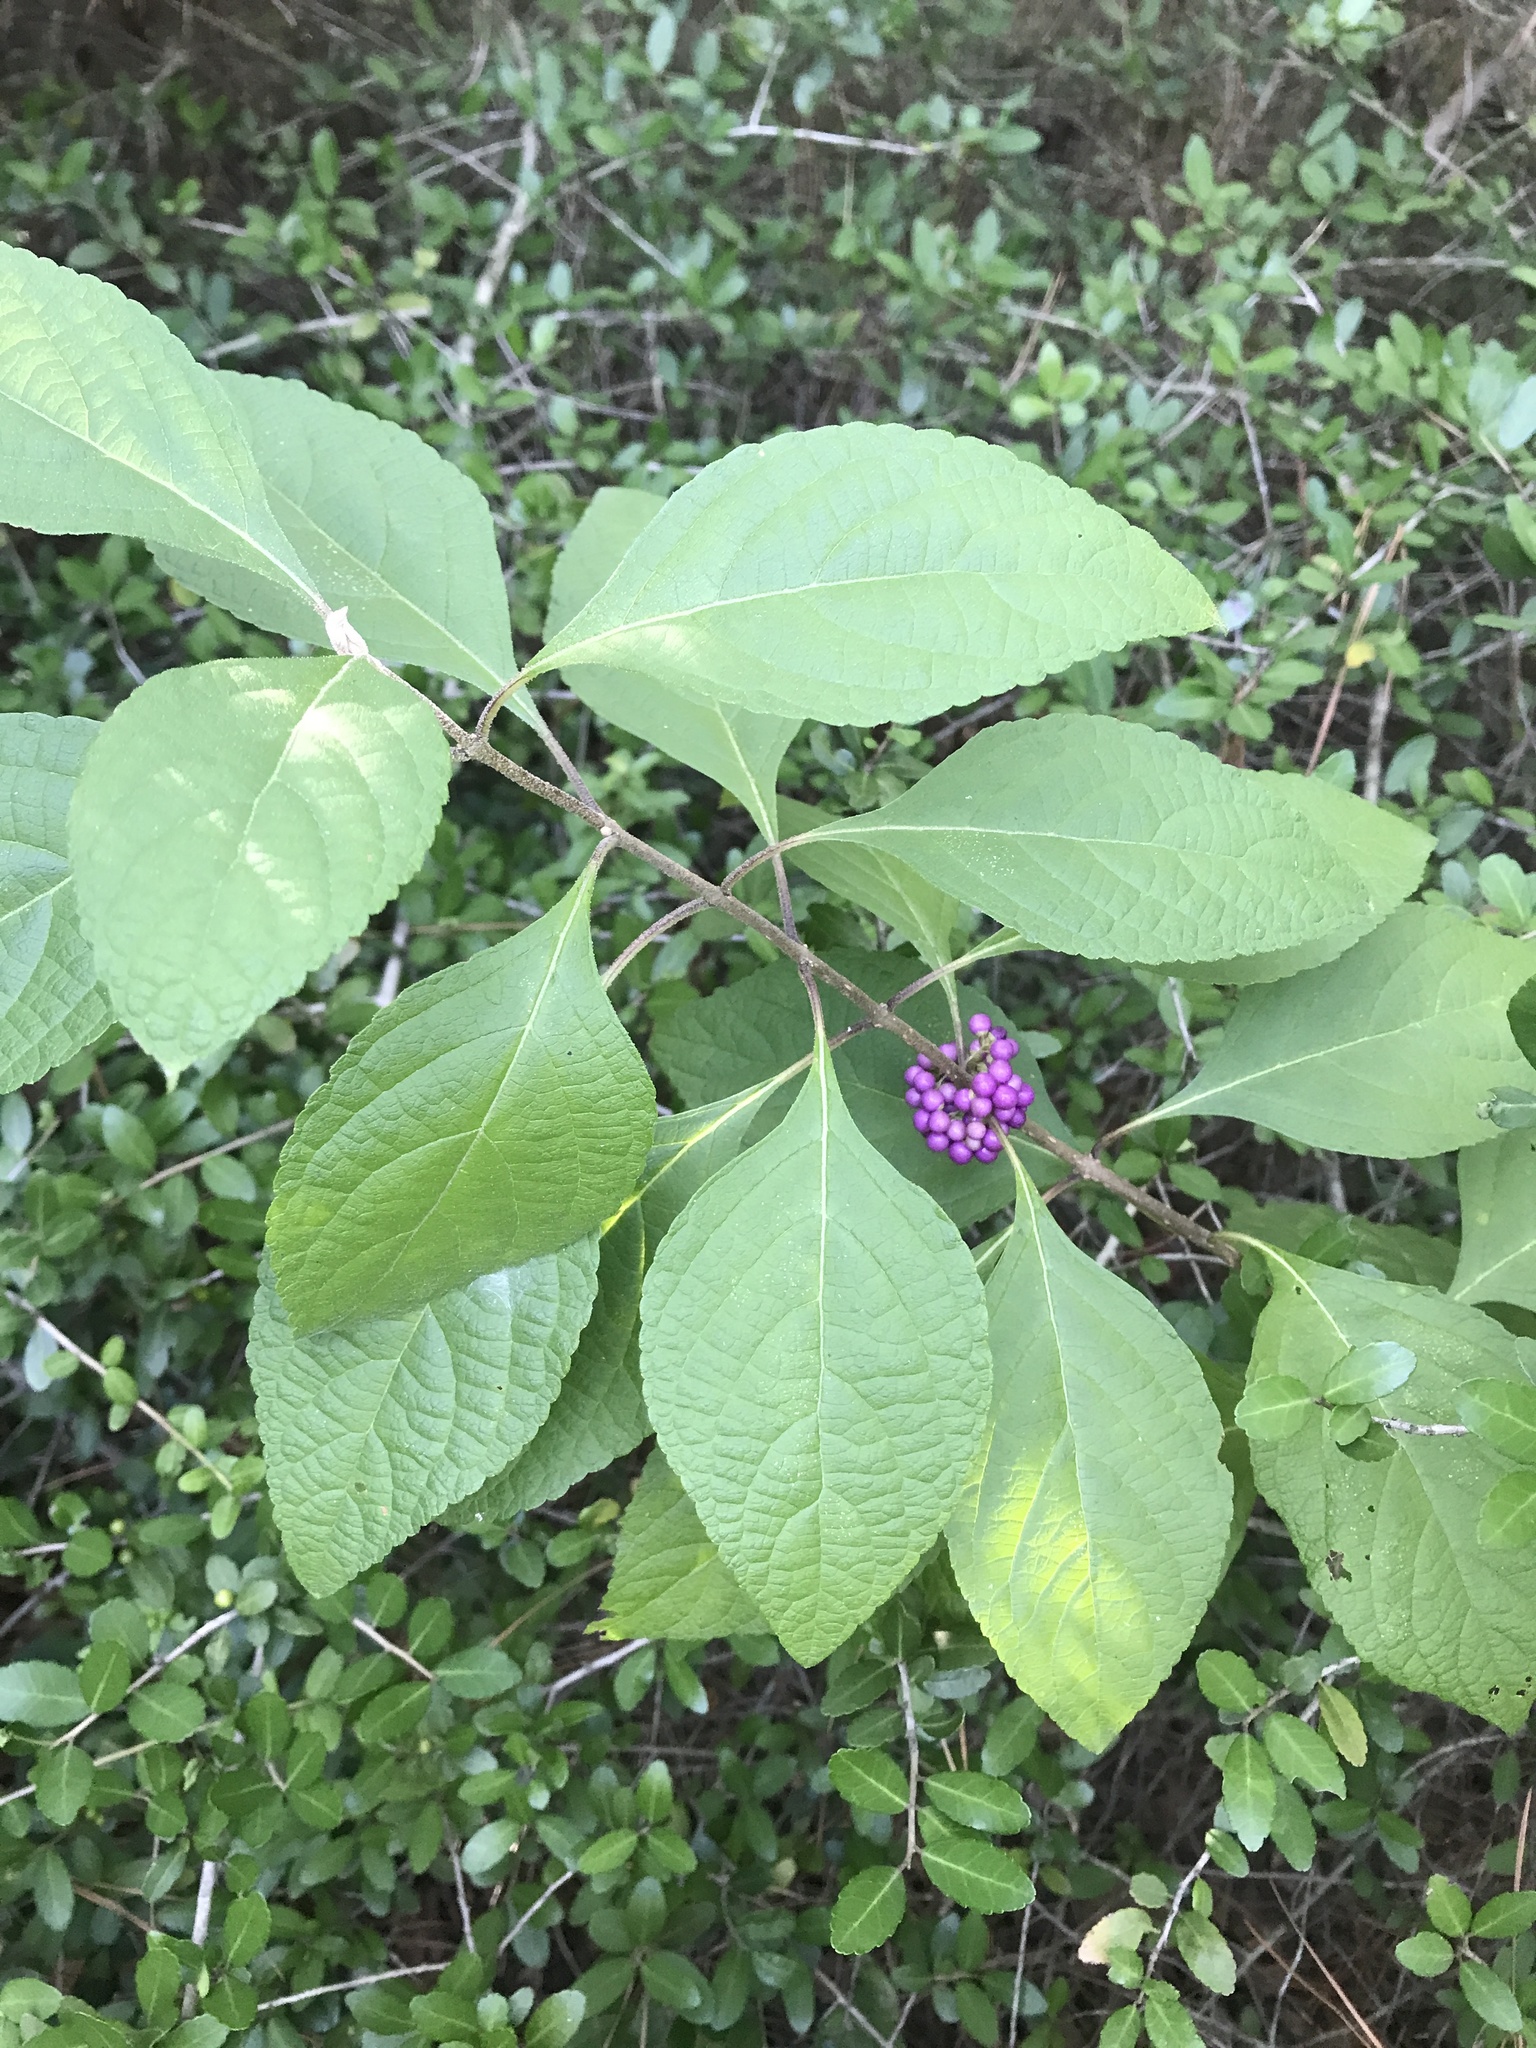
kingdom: Plantae
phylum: Tracheophyta
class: Magnoliopsida
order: Lamiales
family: Lamiaceae
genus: Callicarpa
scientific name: Callicarpa americana
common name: American beautyberry
